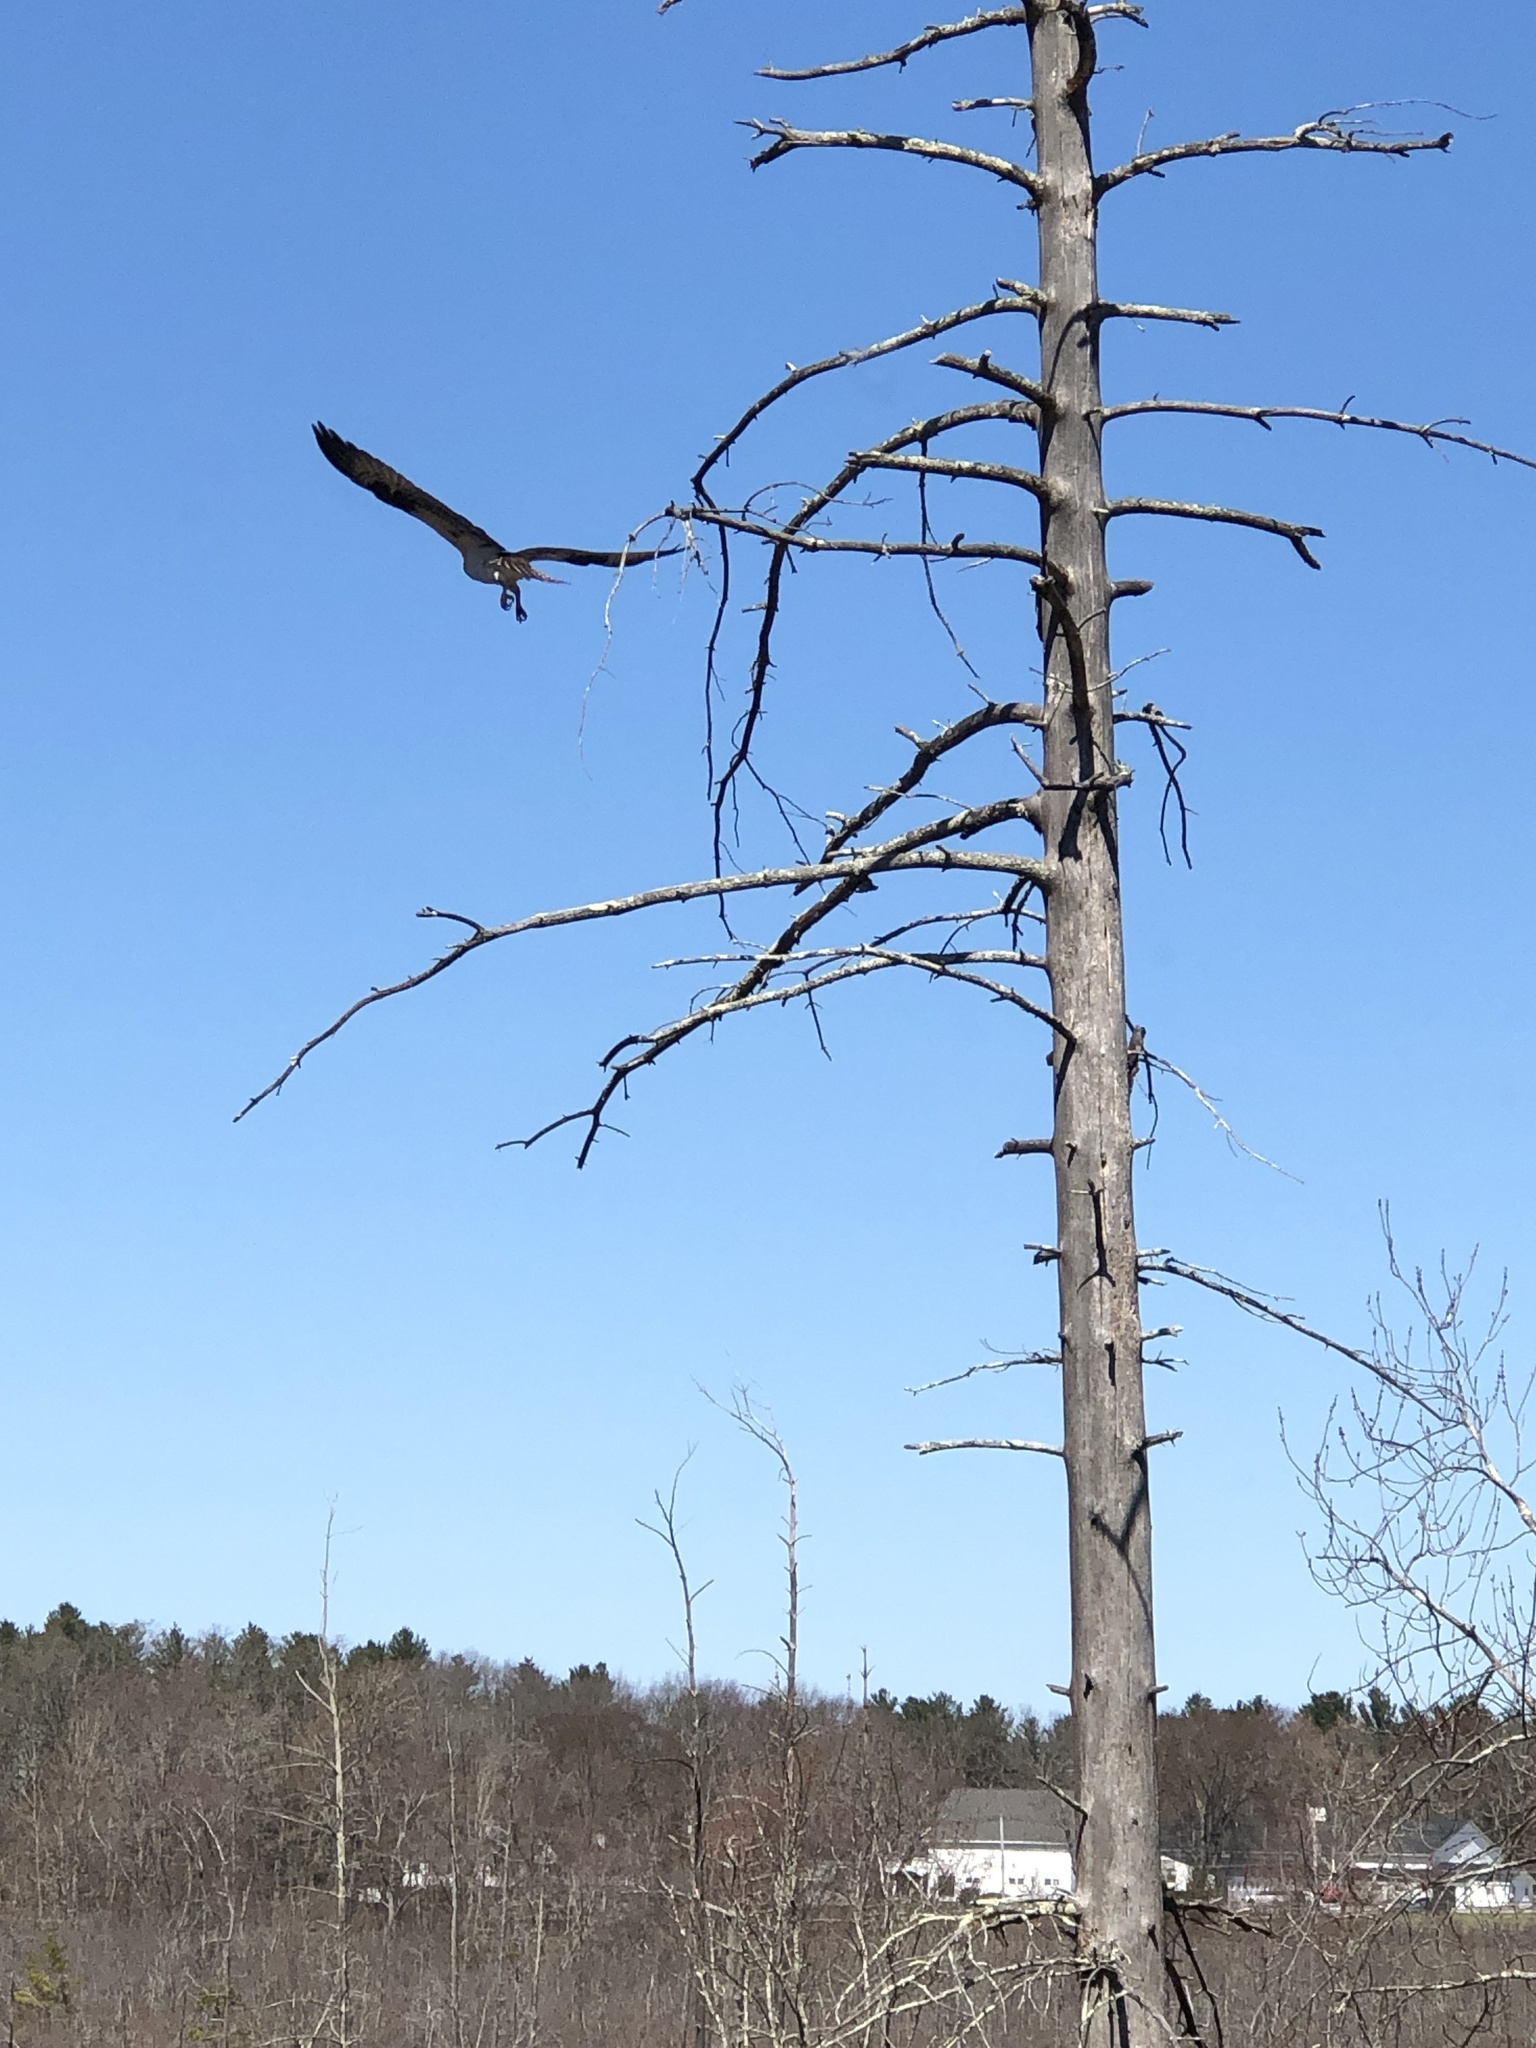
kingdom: Animalia
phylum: Chordata
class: Aves
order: Accipitriformes
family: Pandionidae
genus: Pandion
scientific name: Pandion haliaetus
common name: Osprey
